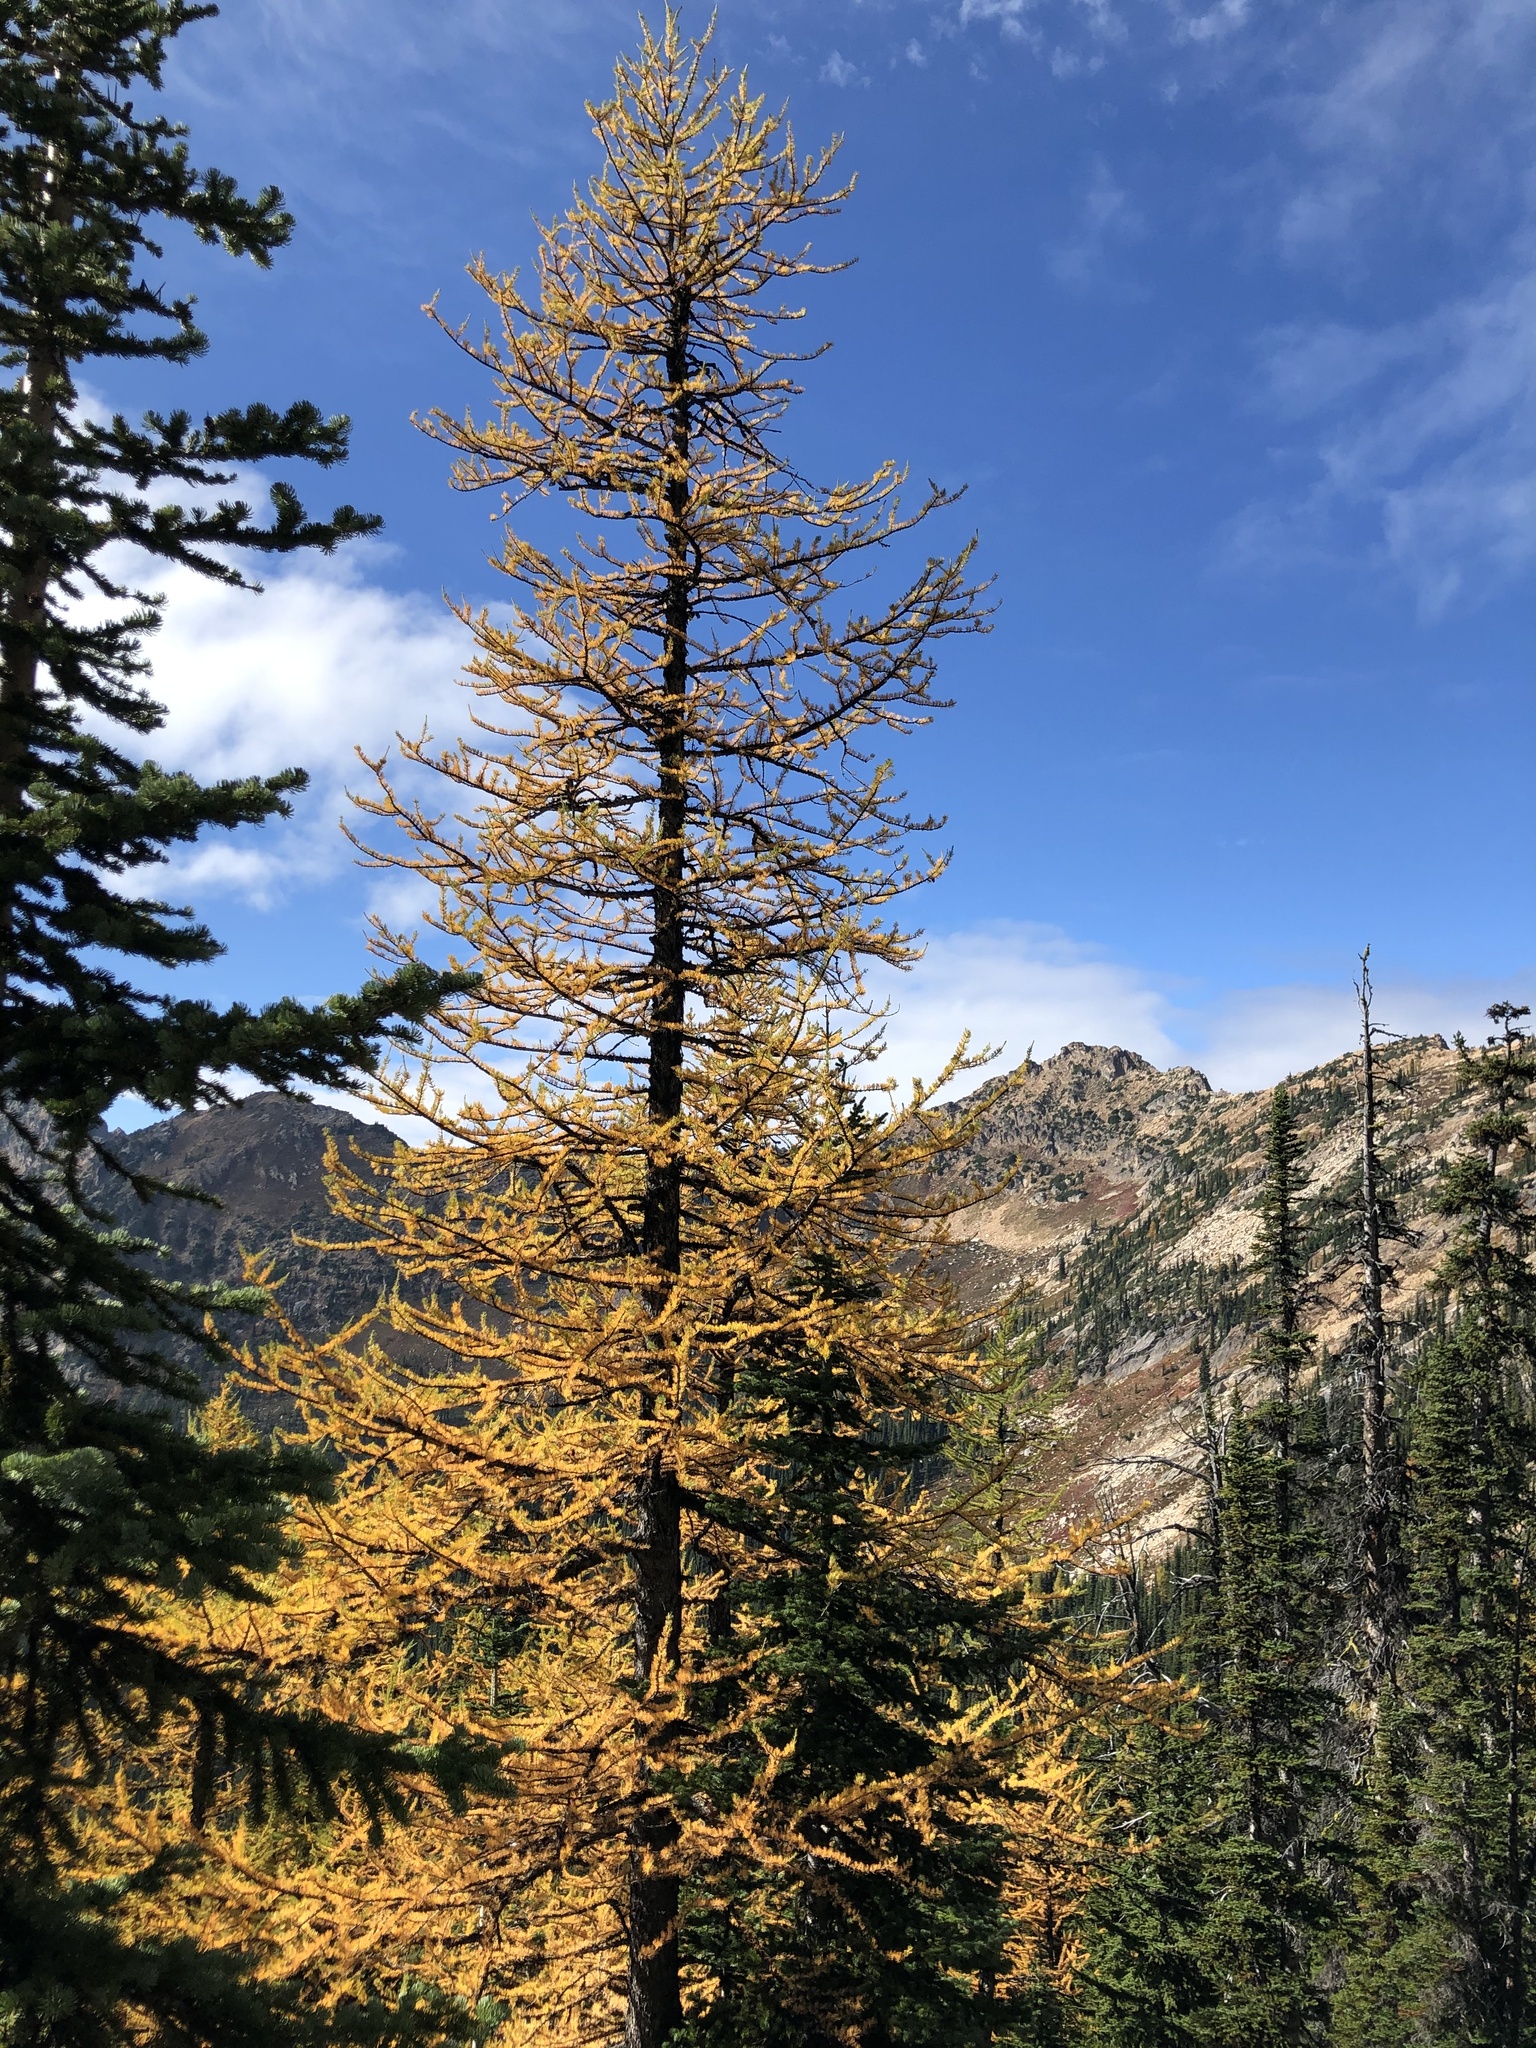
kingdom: Plantae
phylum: Tracheophyta
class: Pinopsida
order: Pinales
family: Pinaceae
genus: Larix
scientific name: Larix lyallii
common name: Alpine larch
